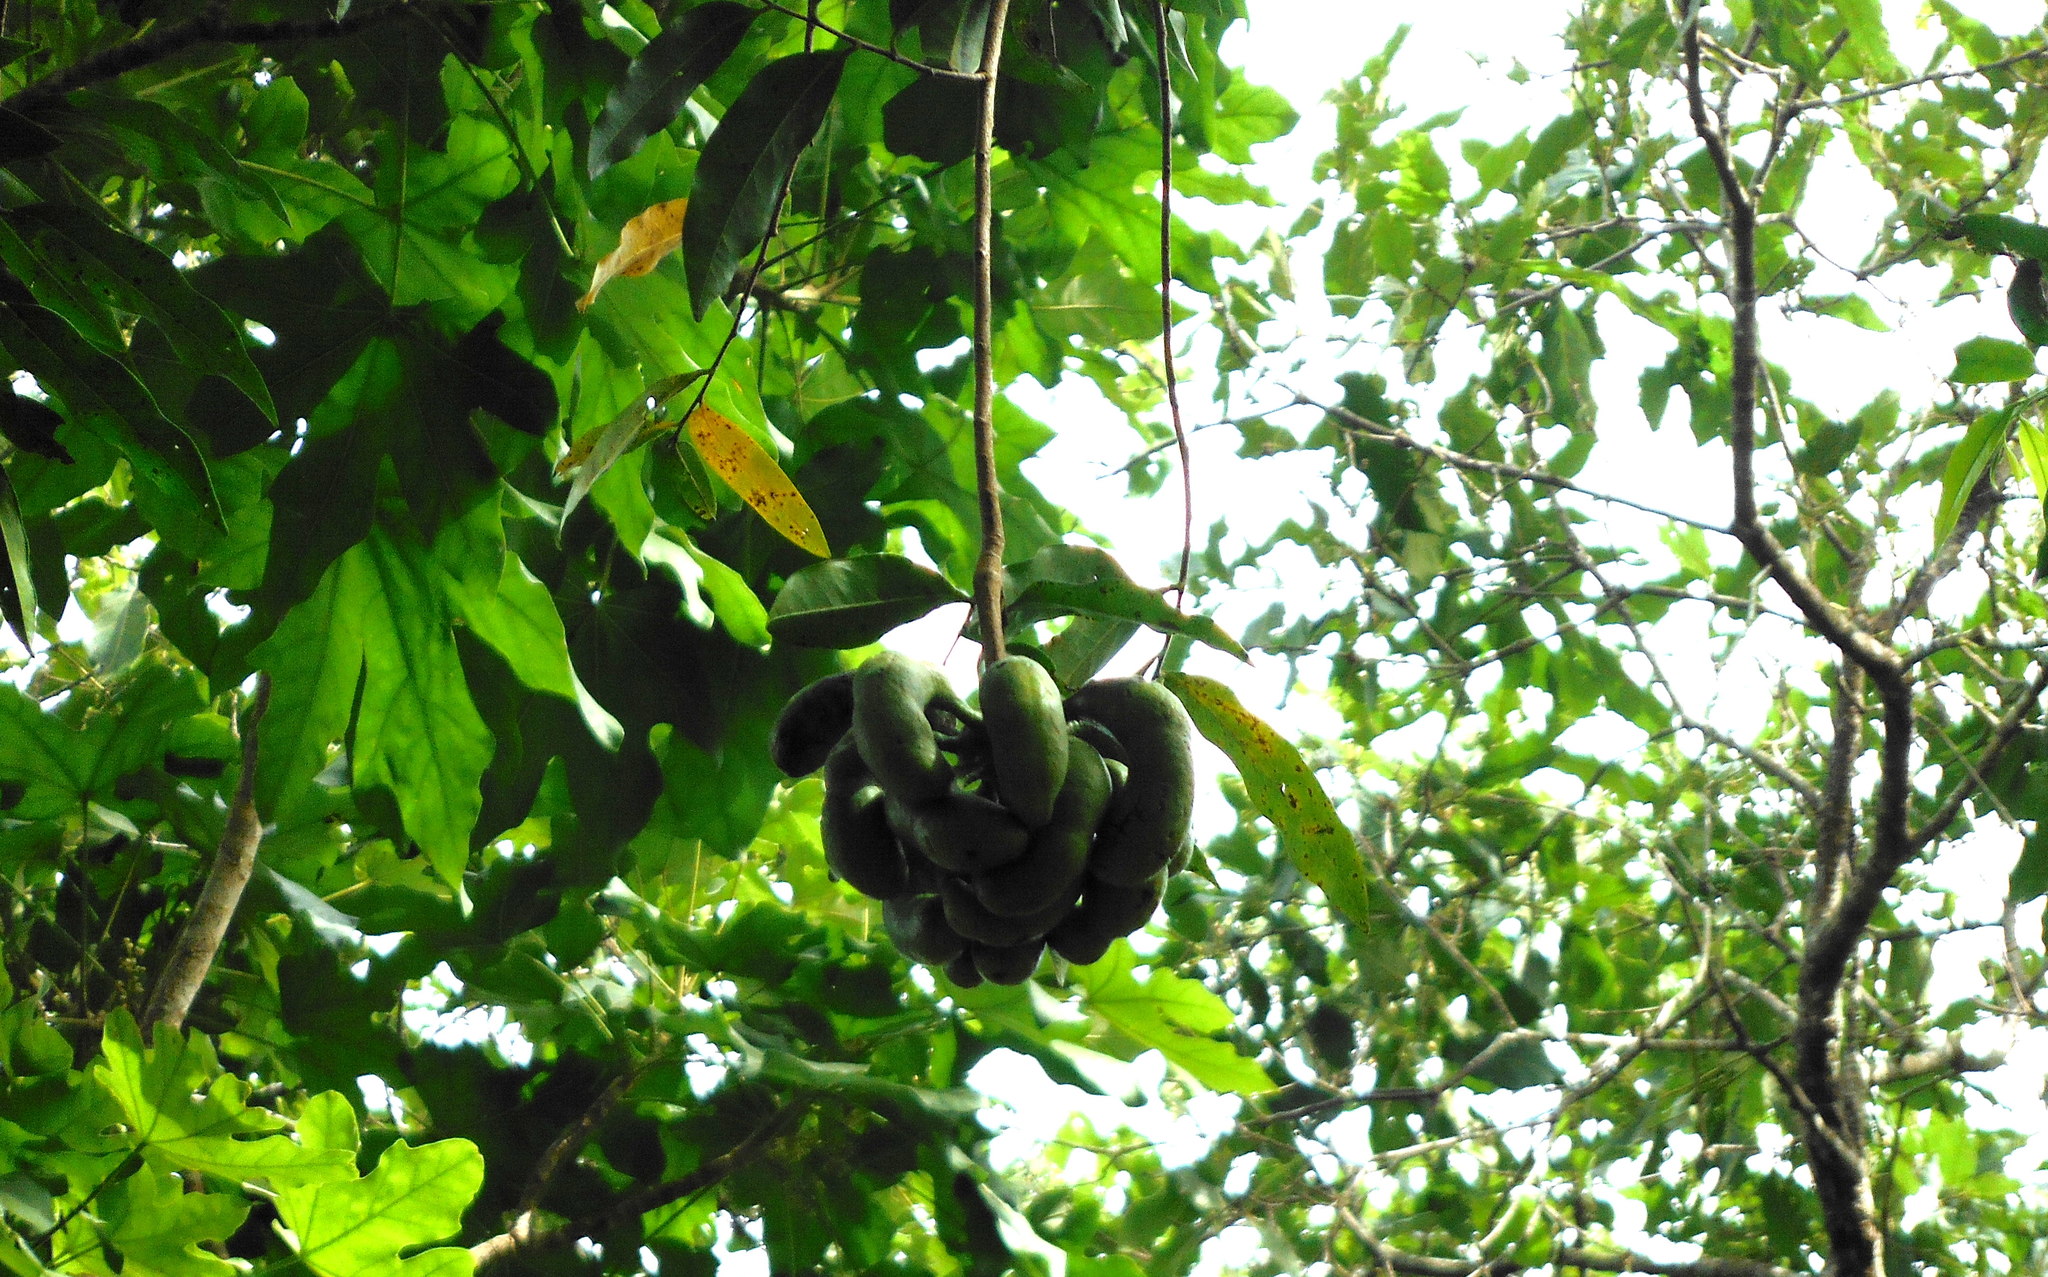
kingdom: Plantae
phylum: Tracheophyta
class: Magnoliopsida
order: Magnoliales
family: Annonaceae
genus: Cymbopetalum
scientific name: Cymbopetalum hintonii
